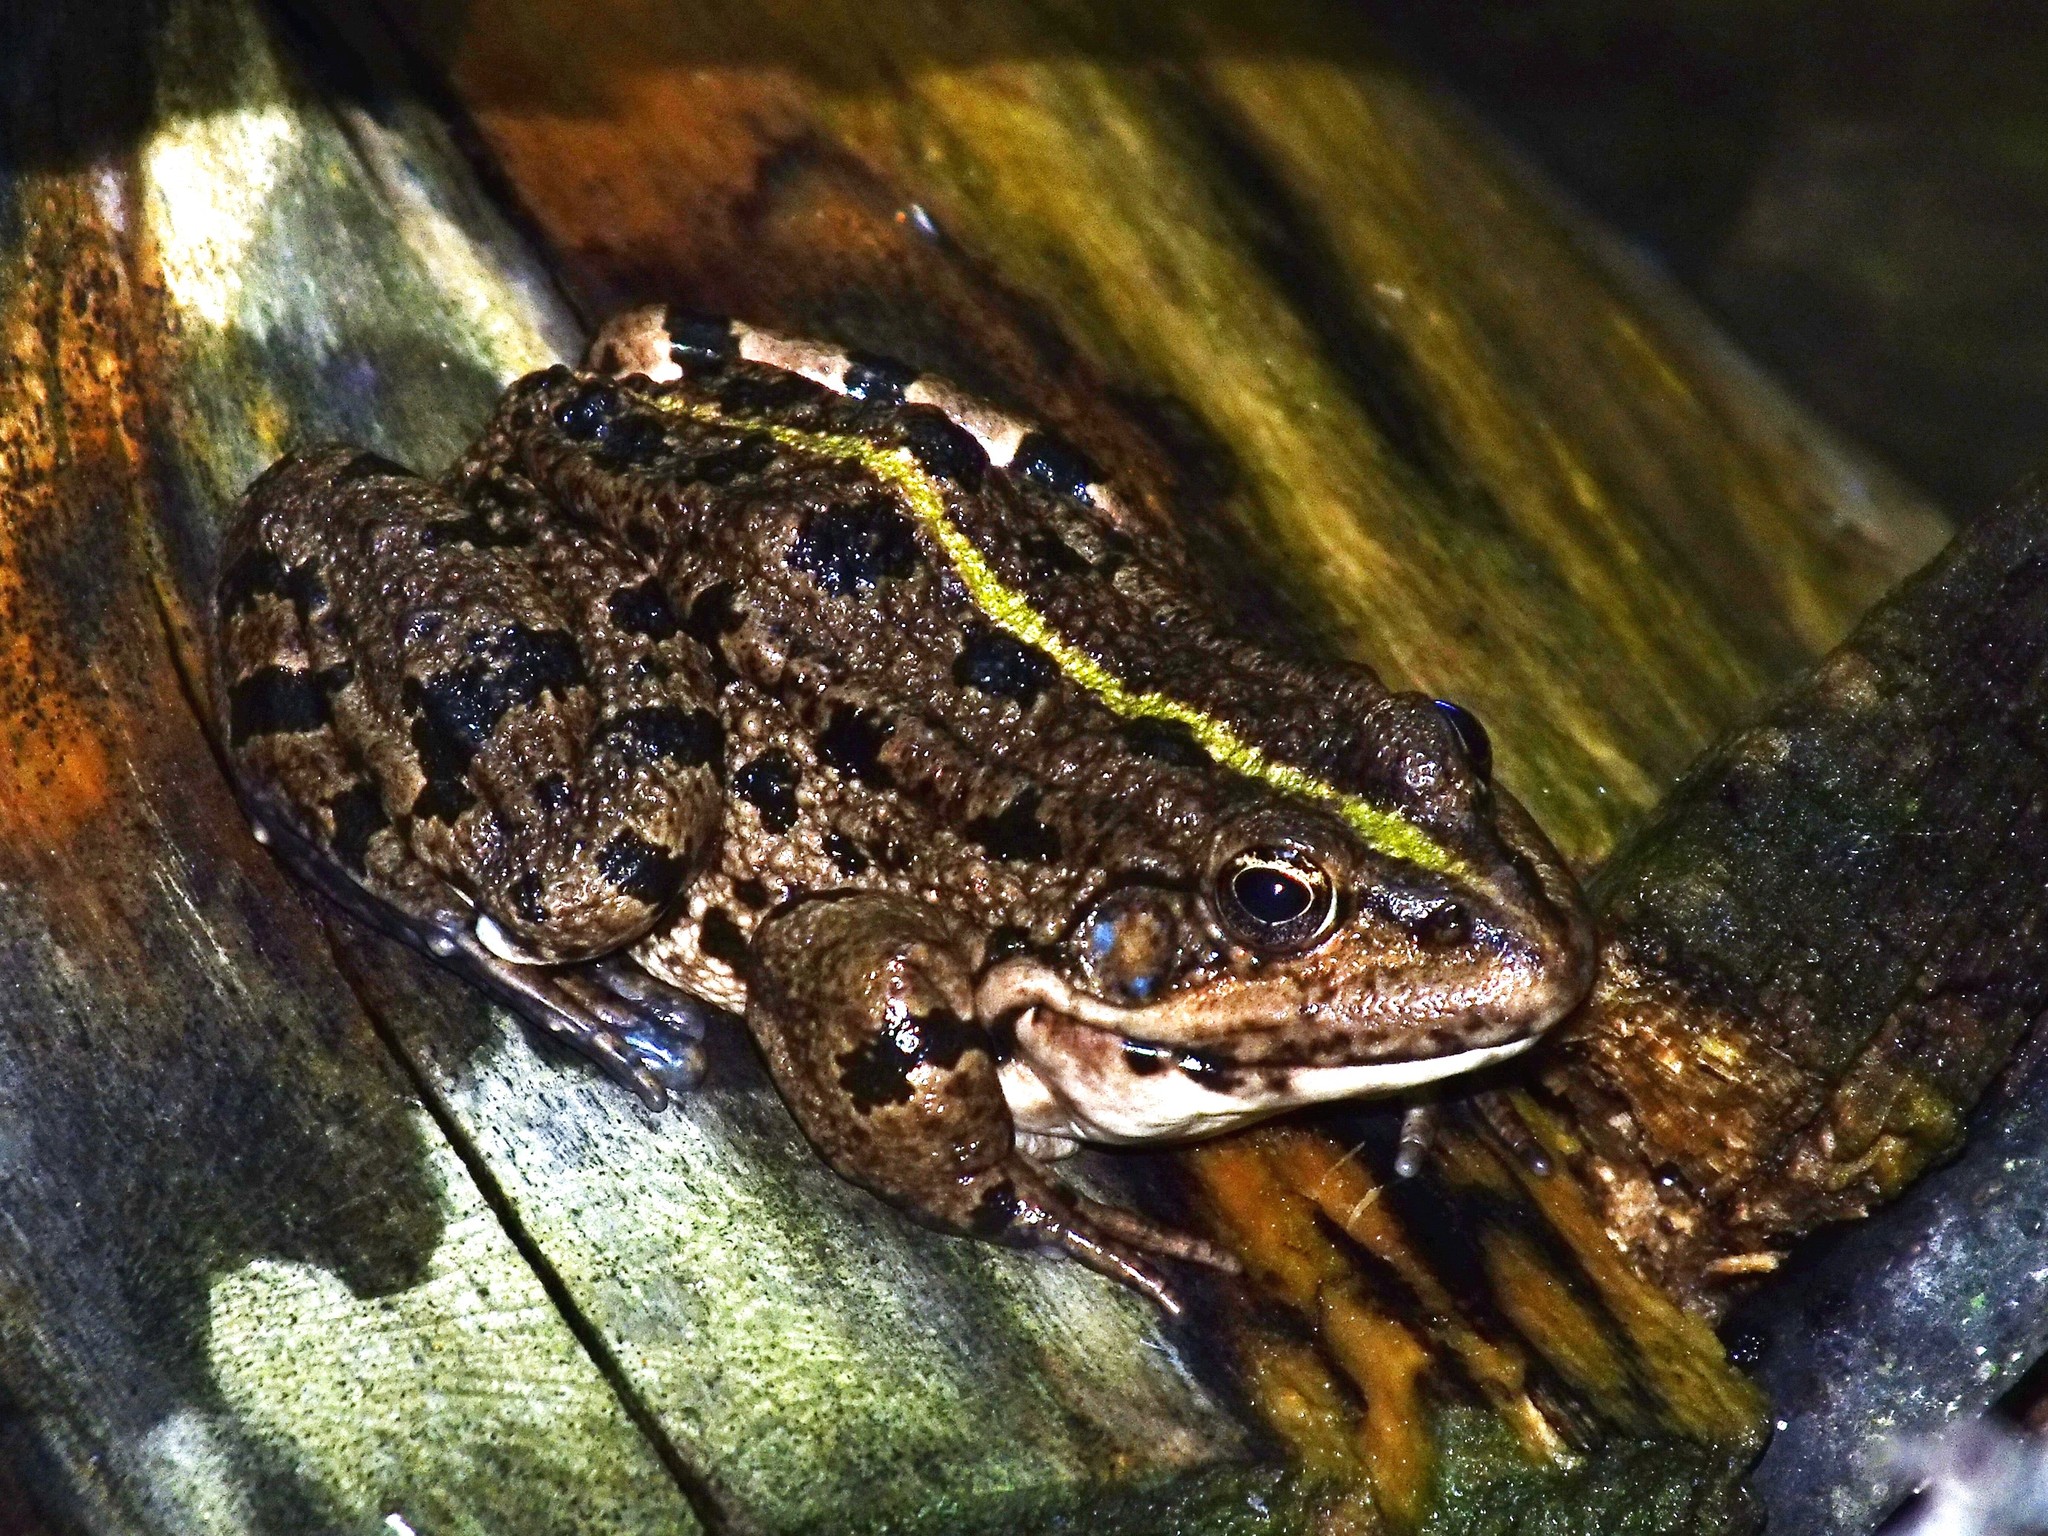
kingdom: Animalia
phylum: Chordata
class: Amphibia
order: Anura
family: Ranidae
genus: Pelophylax
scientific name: Pelophylax ridibundus
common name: Marsh frog
